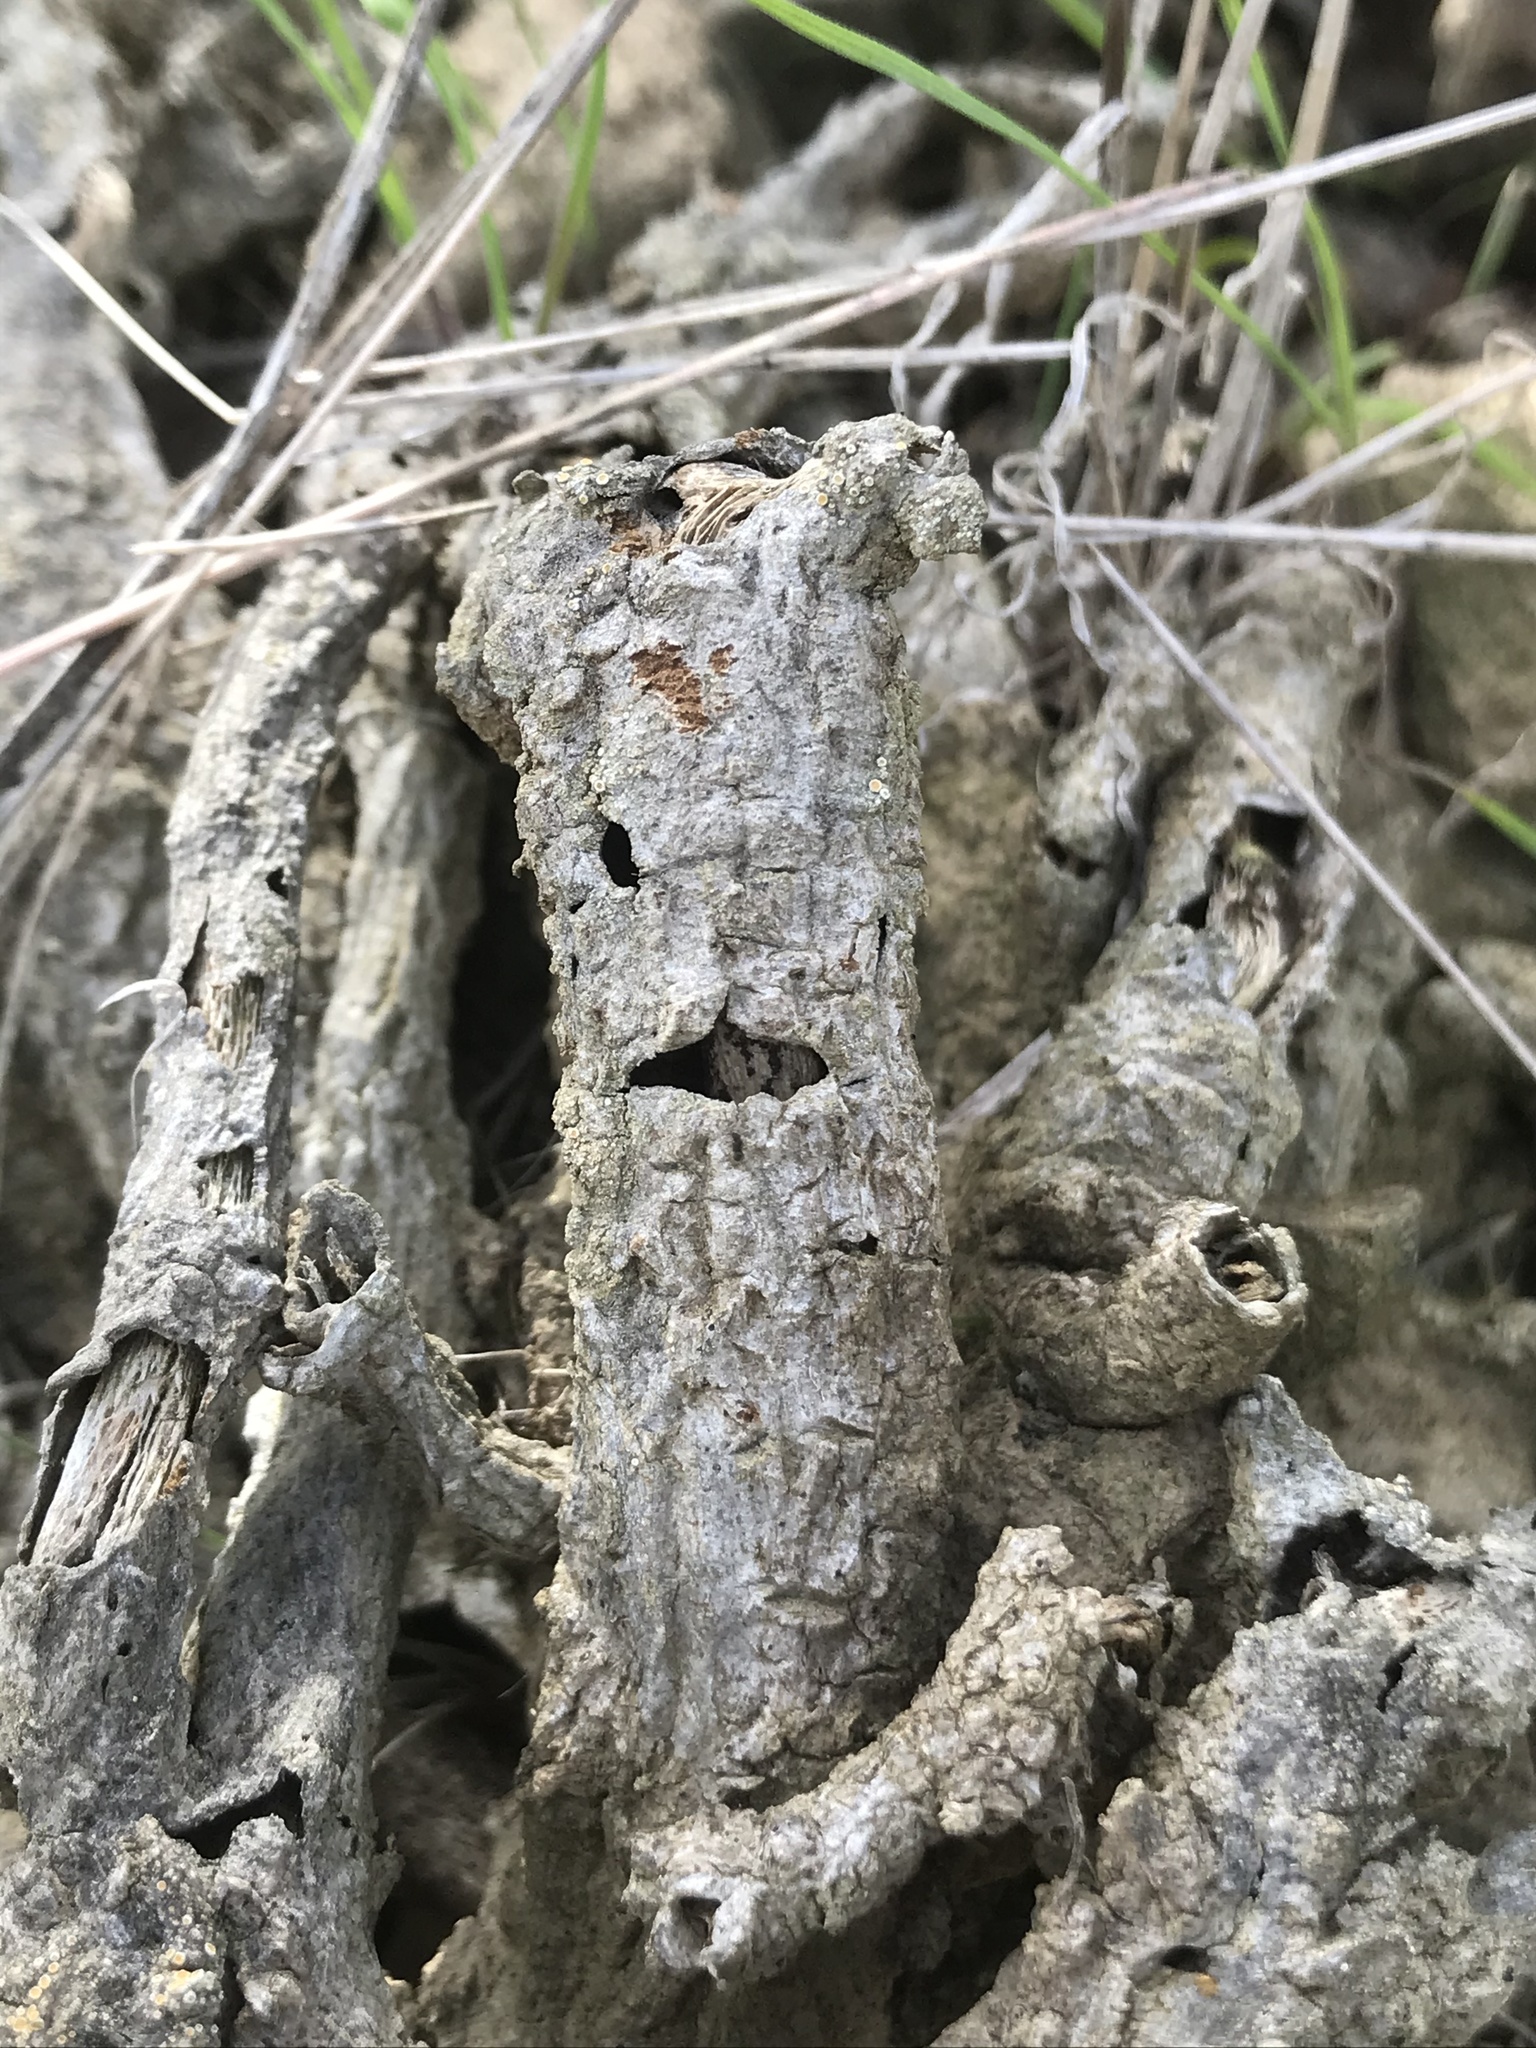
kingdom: Plantae
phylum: Tracheophyta
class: Magnoliopsida
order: Asterales
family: Asteraceae
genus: Coreopsis
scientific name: Coreopsis gigantea
